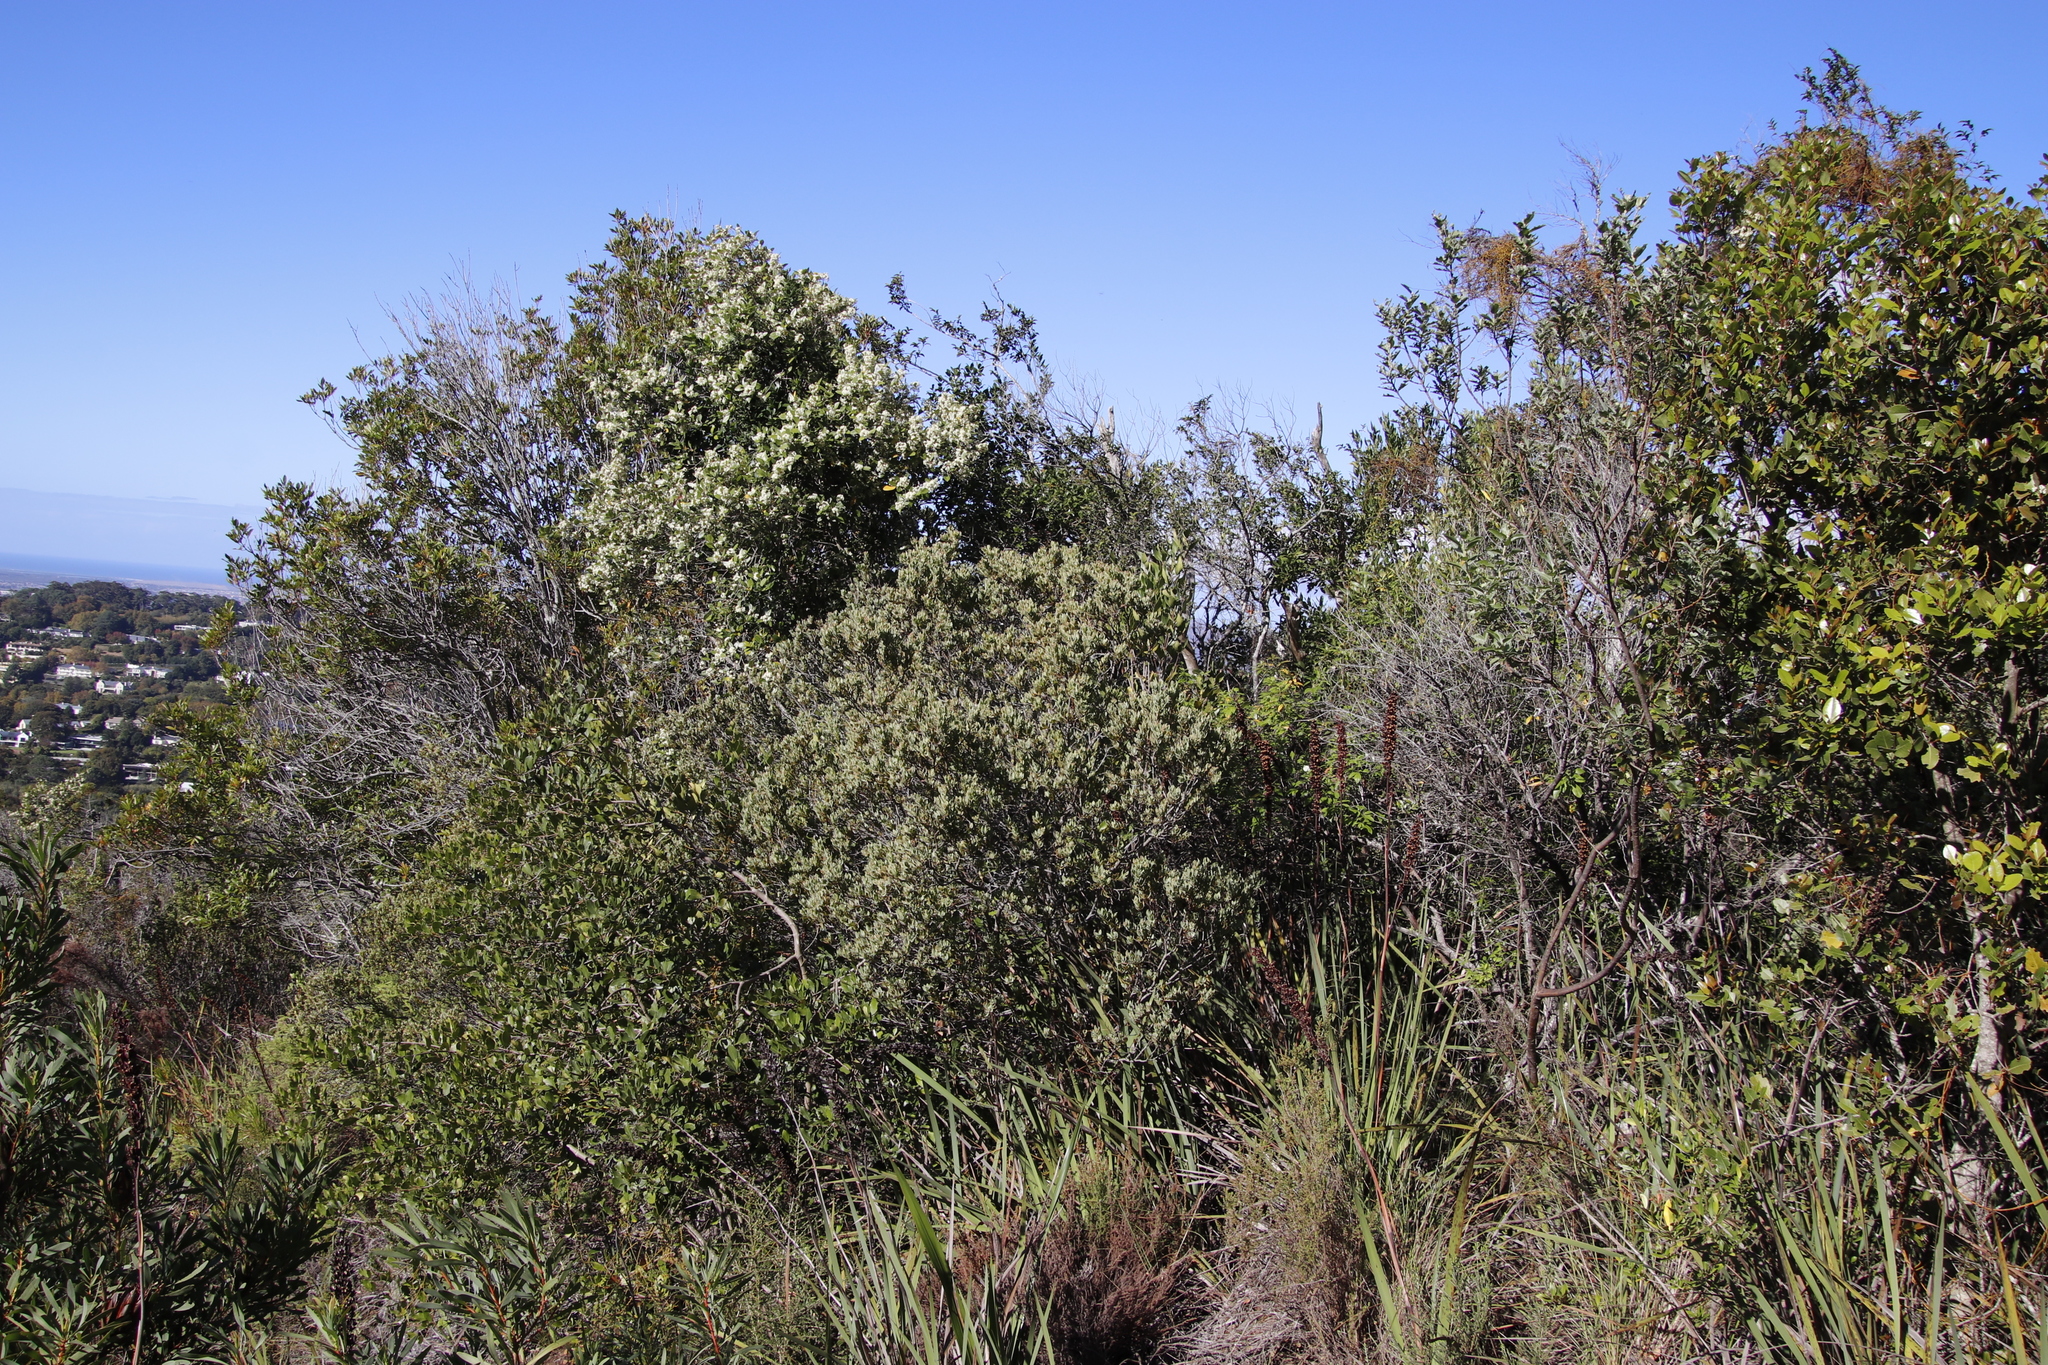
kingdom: Plantae
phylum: Tracheophyta
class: Magnoliopsida
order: Santalales
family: Santalaceae
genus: Osyris
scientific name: Osyris compressa
